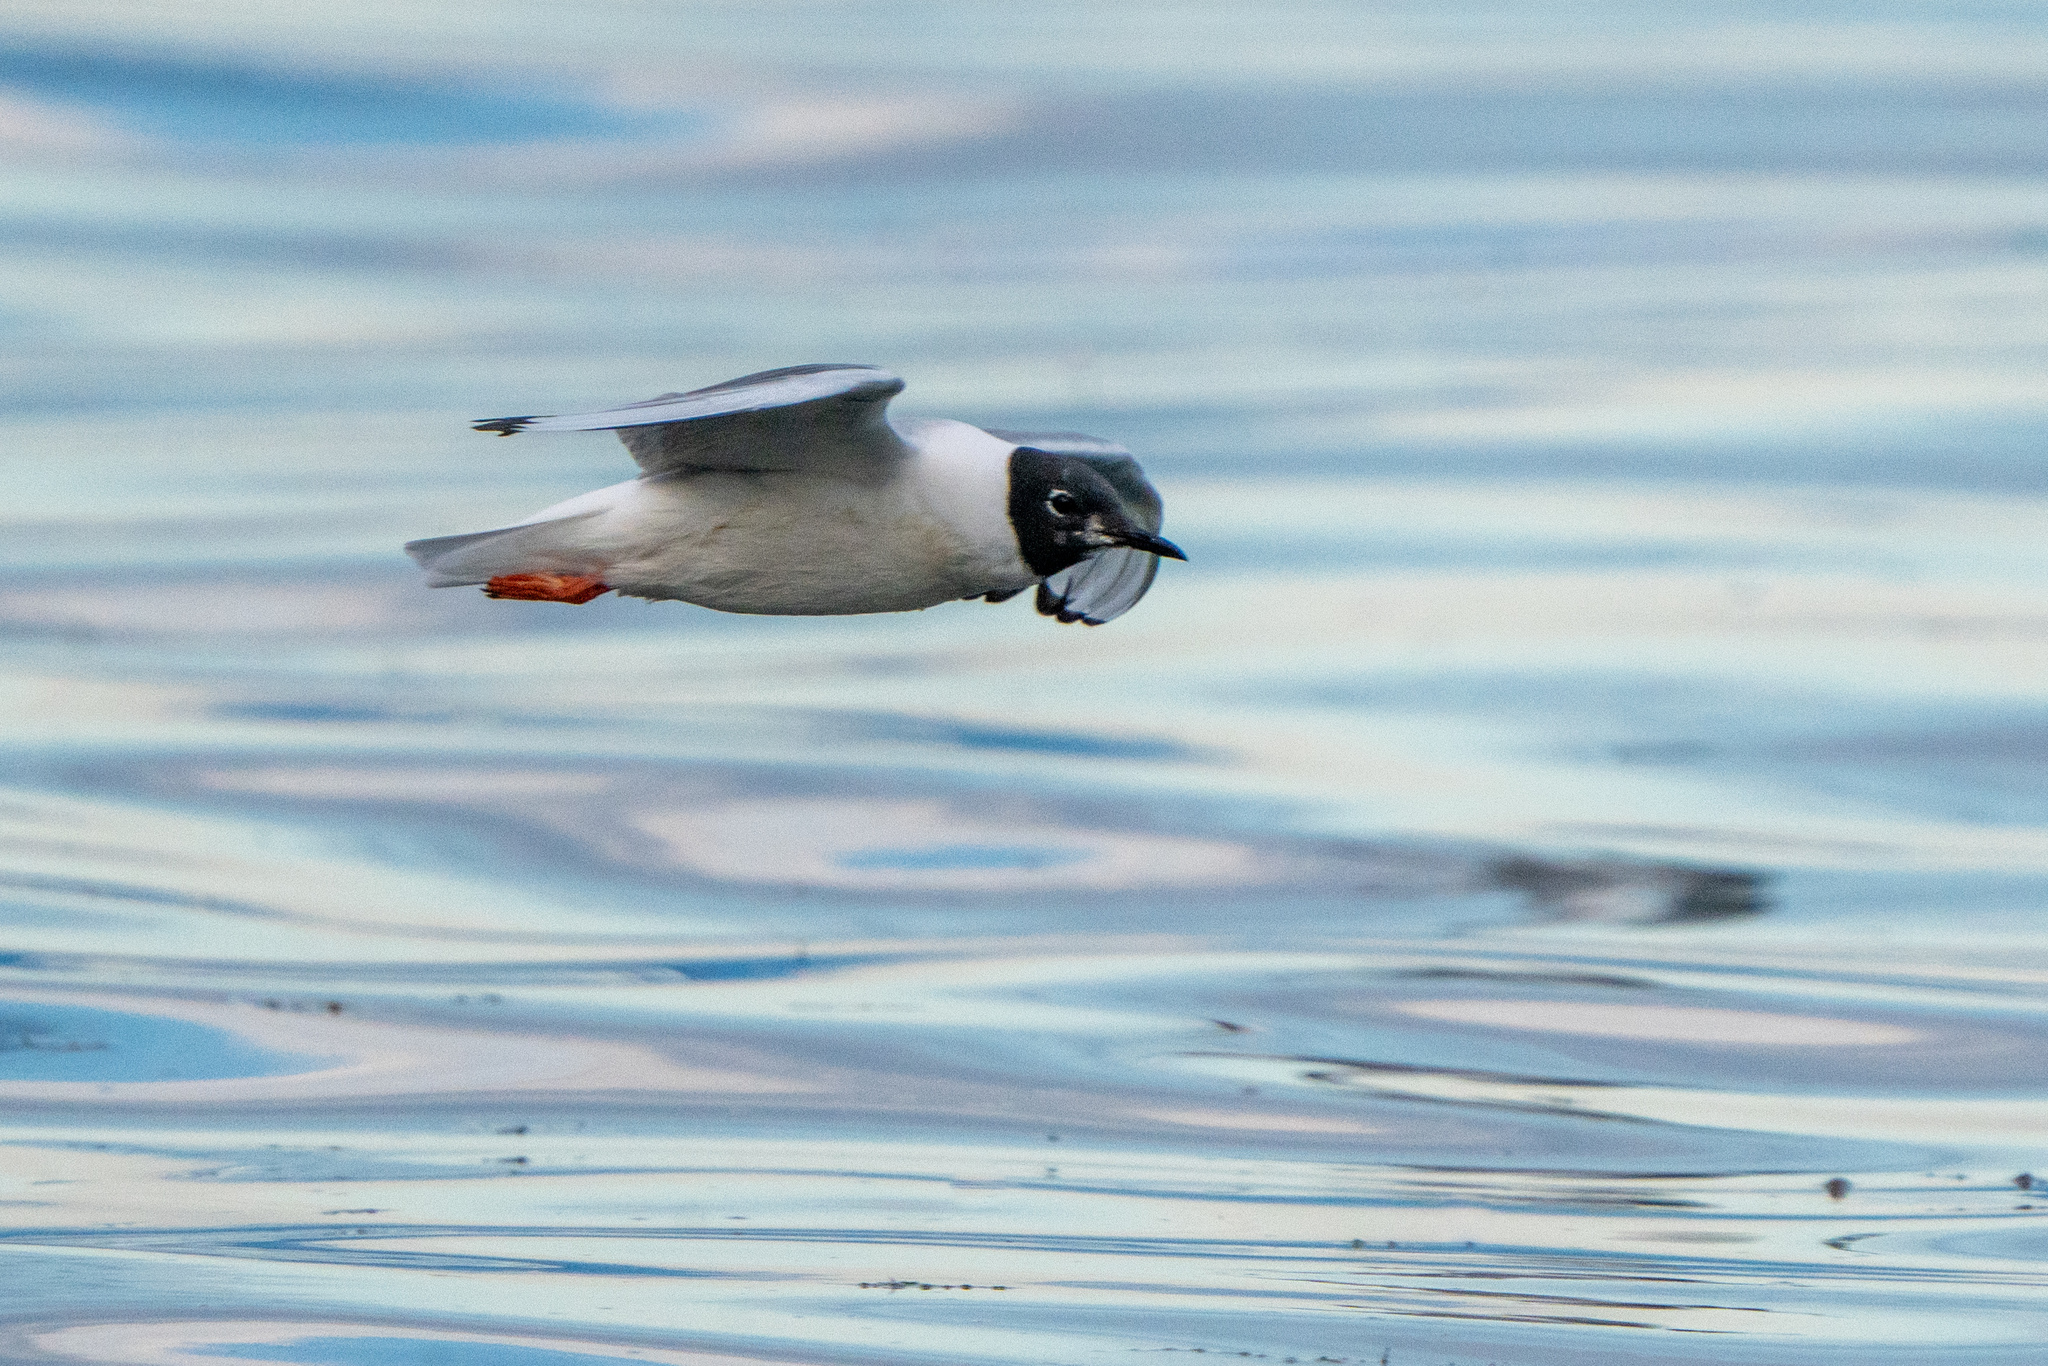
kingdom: Animalia
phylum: Chordata
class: Aves
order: Charadriiformes
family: Laridae
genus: Chroicocephalus
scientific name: Chroicocephalus philadelphia
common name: Bonaparte's gull
